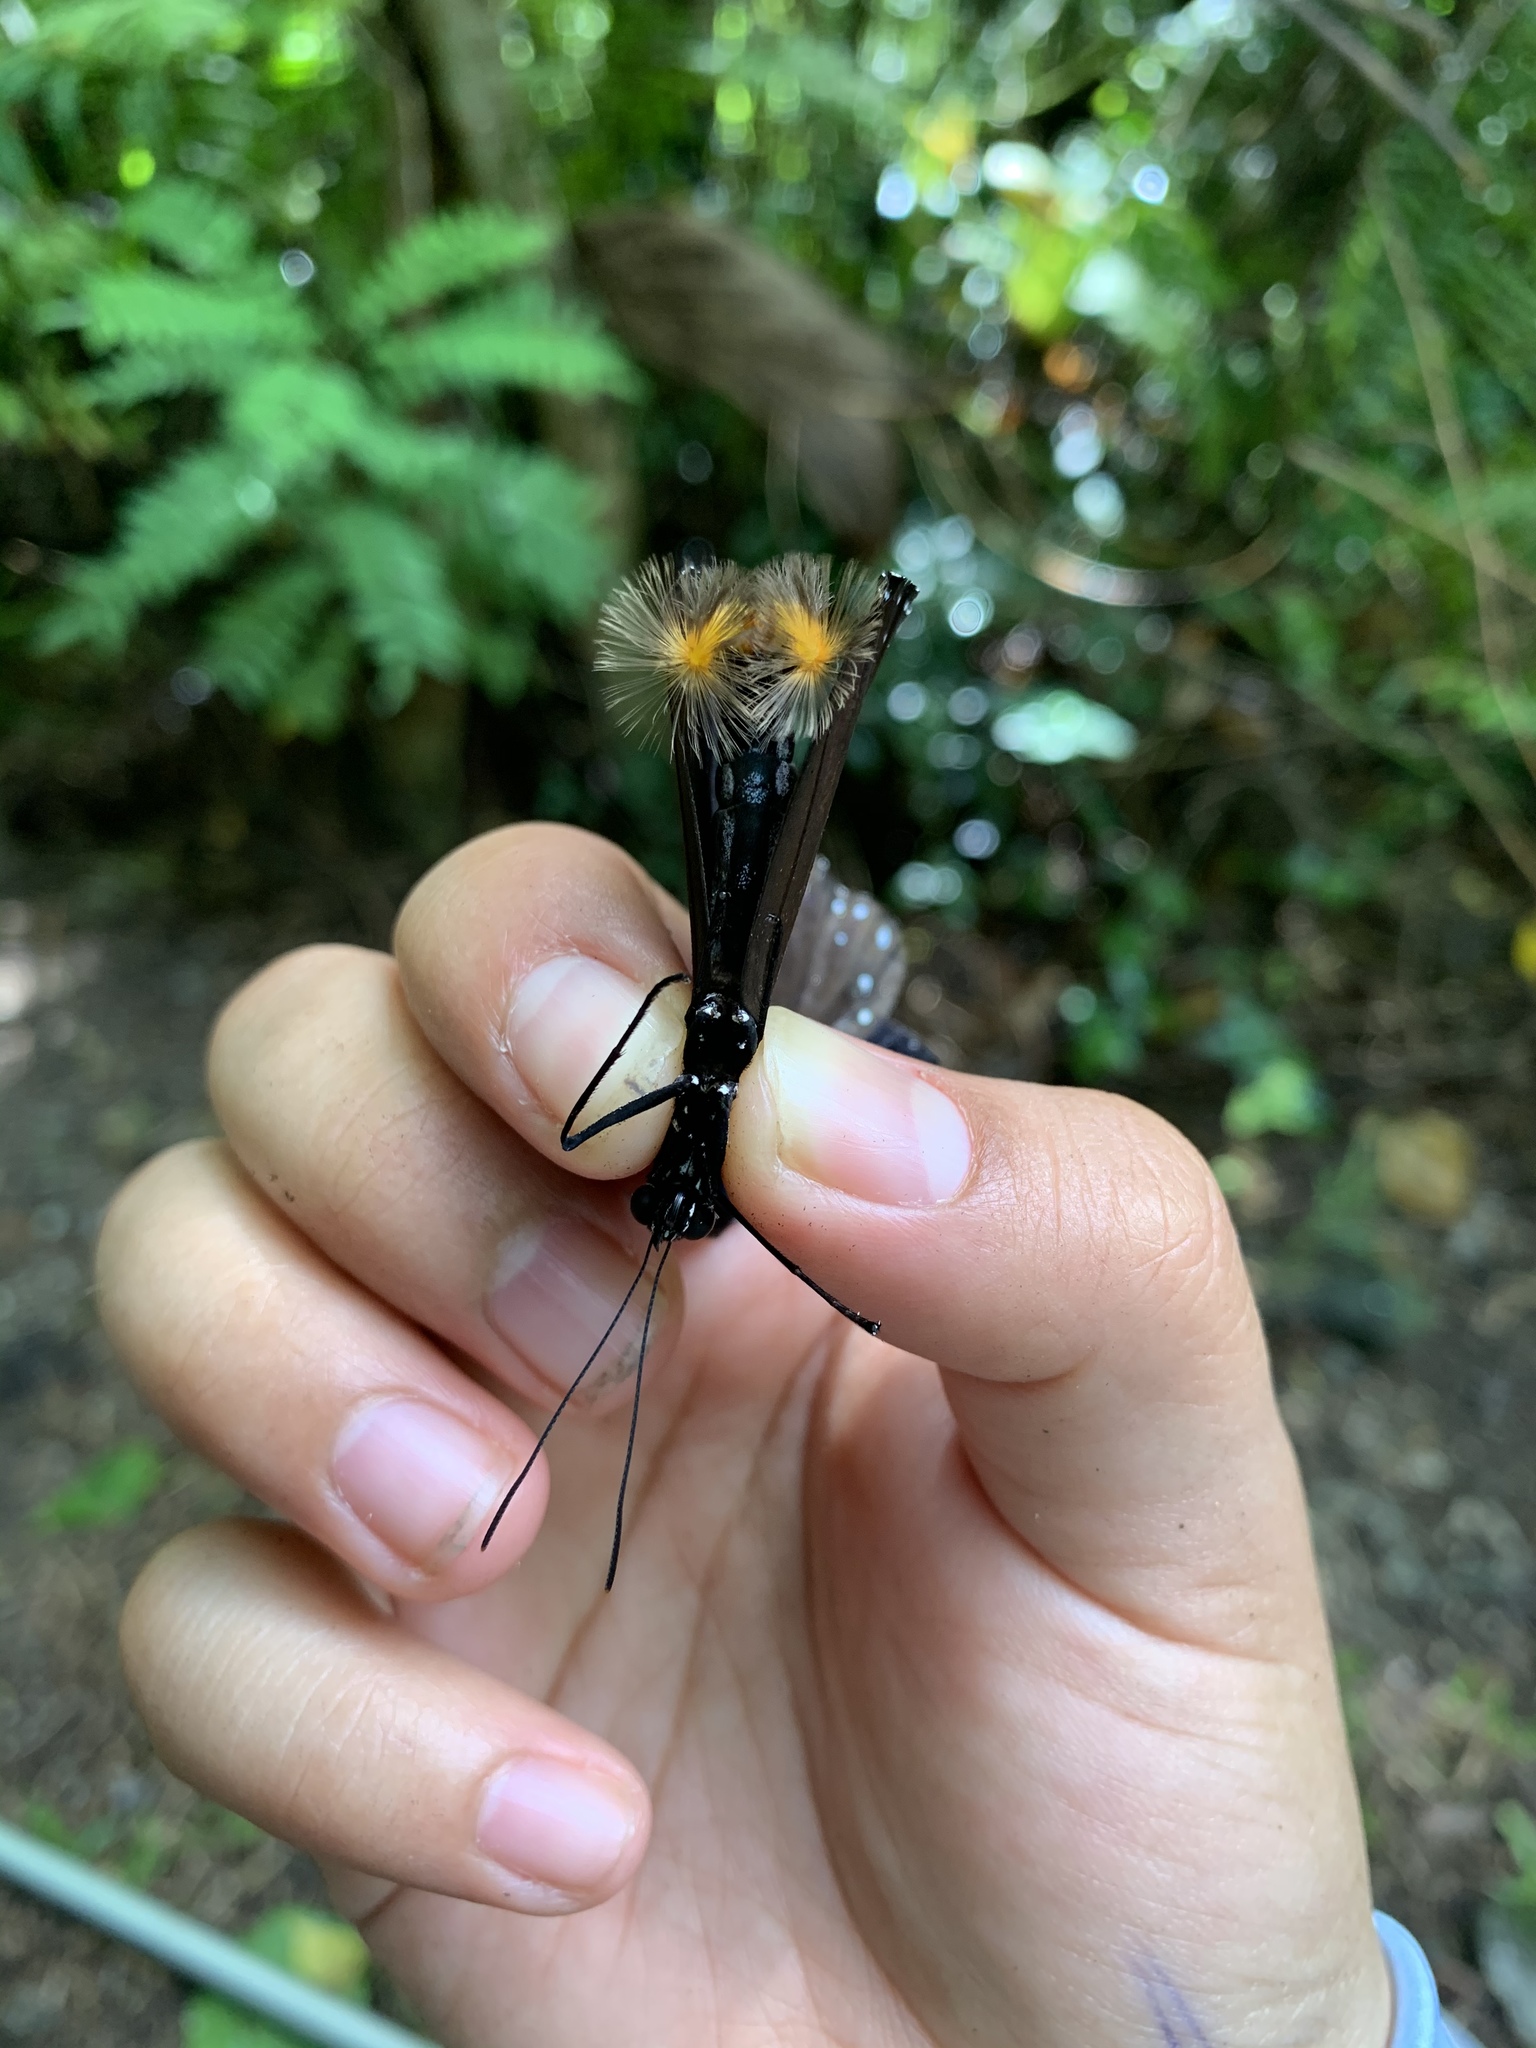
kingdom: Animalia
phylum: Arthropoda
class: Insecta
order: Lepidoptera
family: Nymphalidae
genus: Euploea
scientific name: Euploea eunice
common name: Blue-banded king crow butterfly
